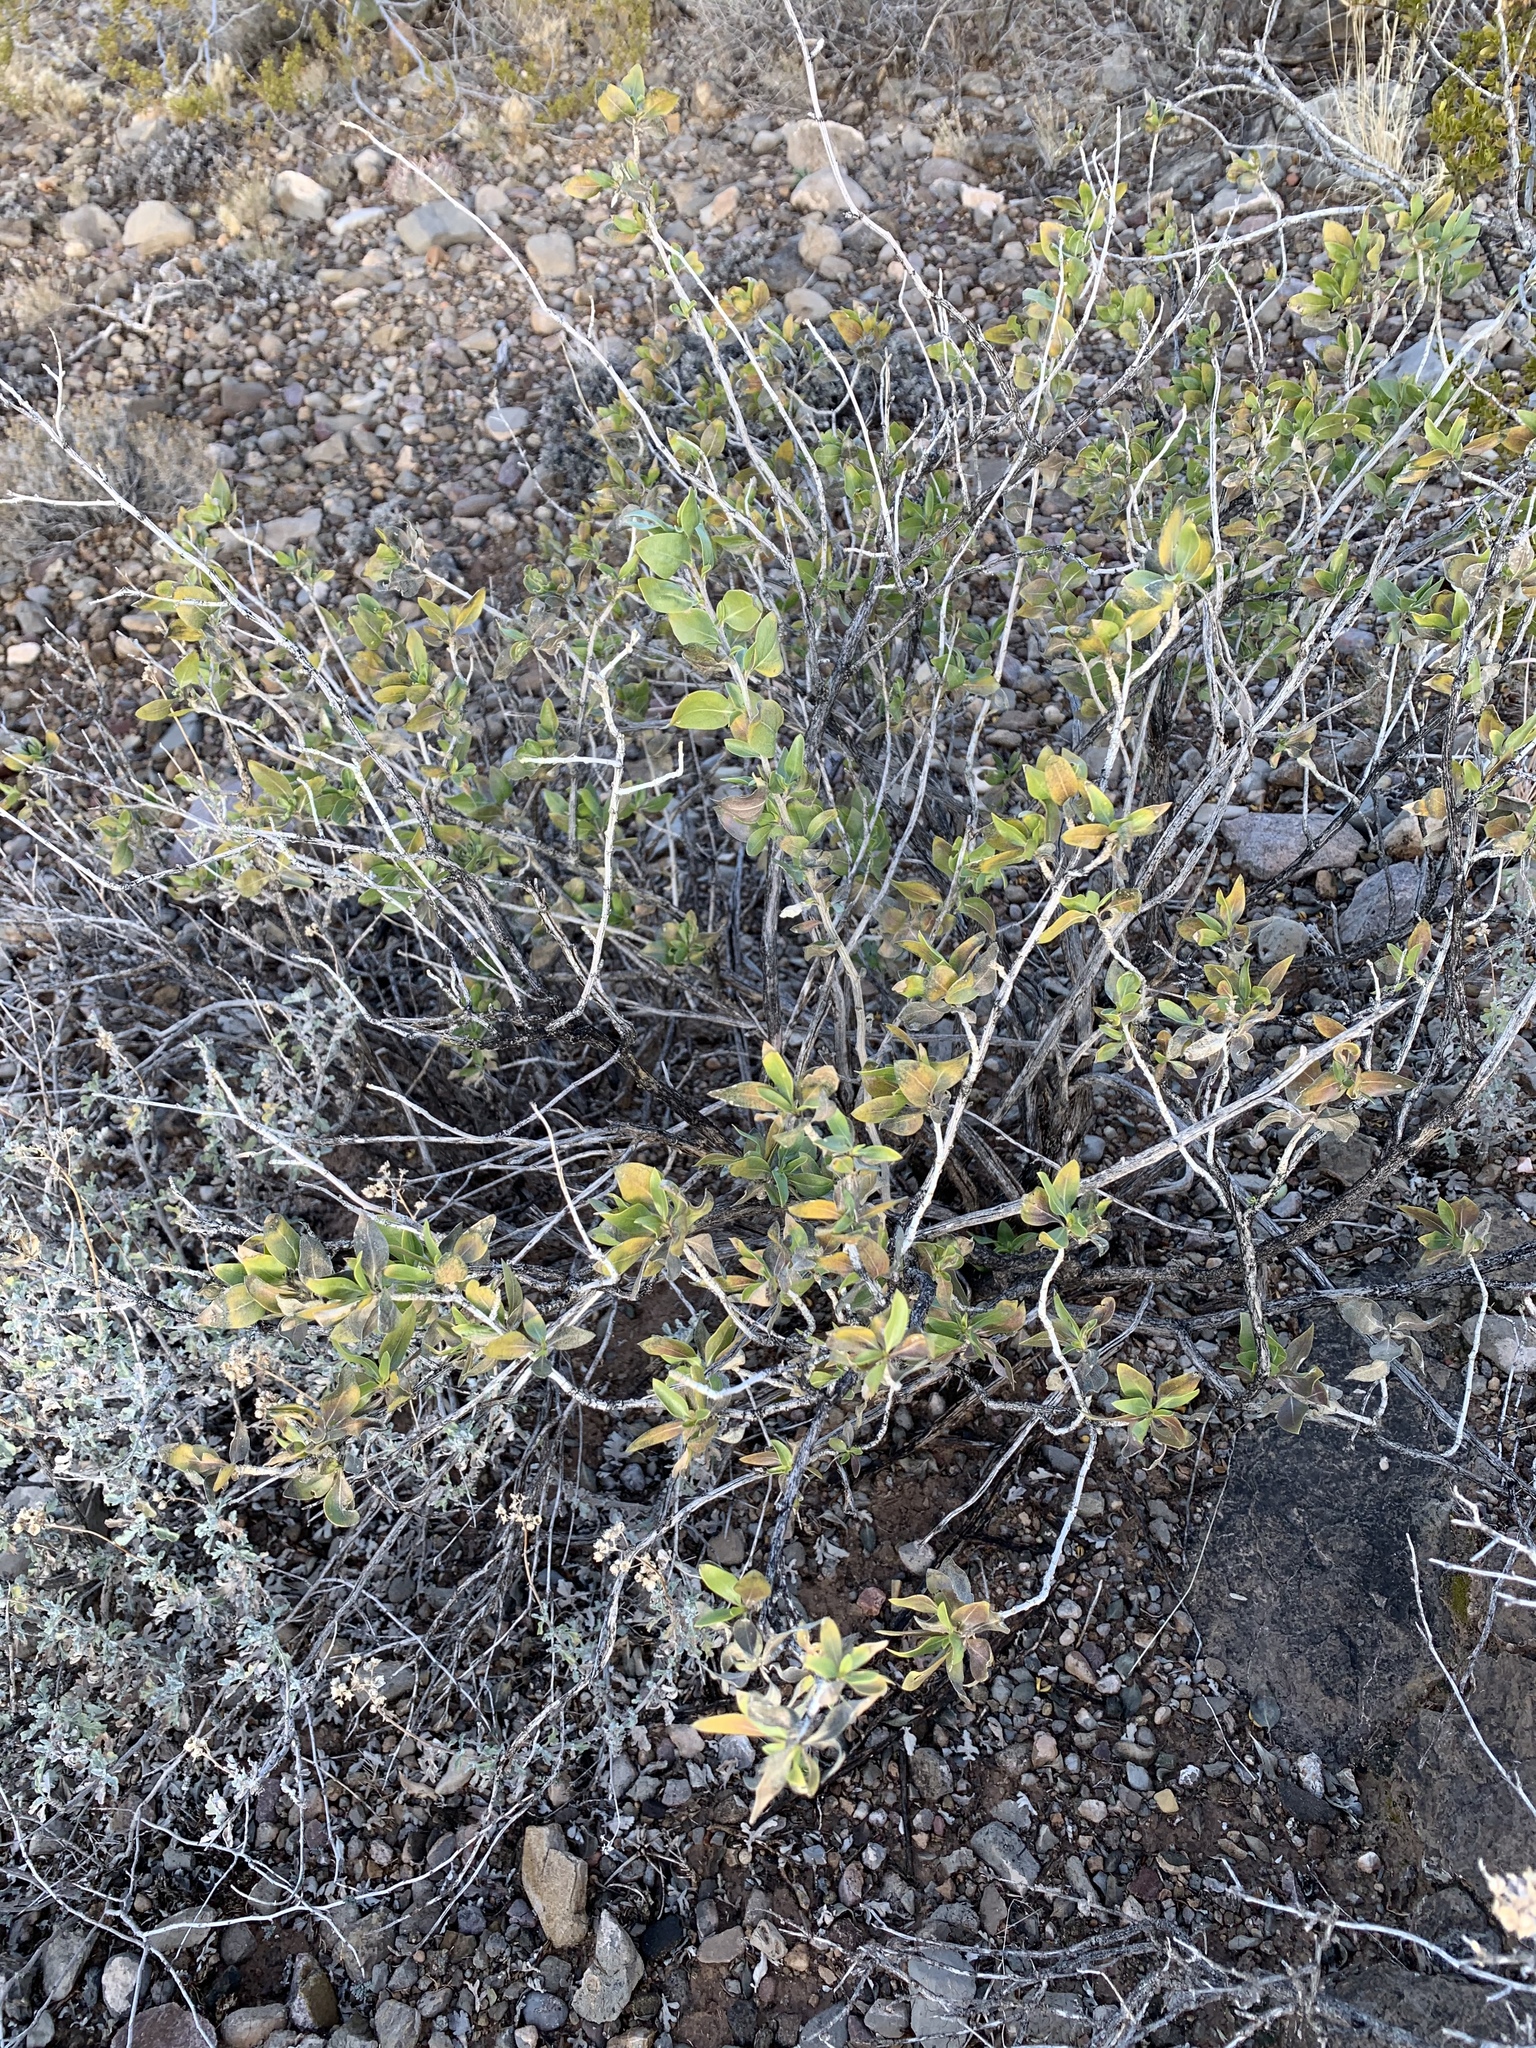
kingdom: Plantae
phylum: Tracheophyta
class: Magnoliopsida
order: Asterales
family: Asteraceae
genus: Flourensia
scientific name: Flourensia cernua
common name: Varnishbush
